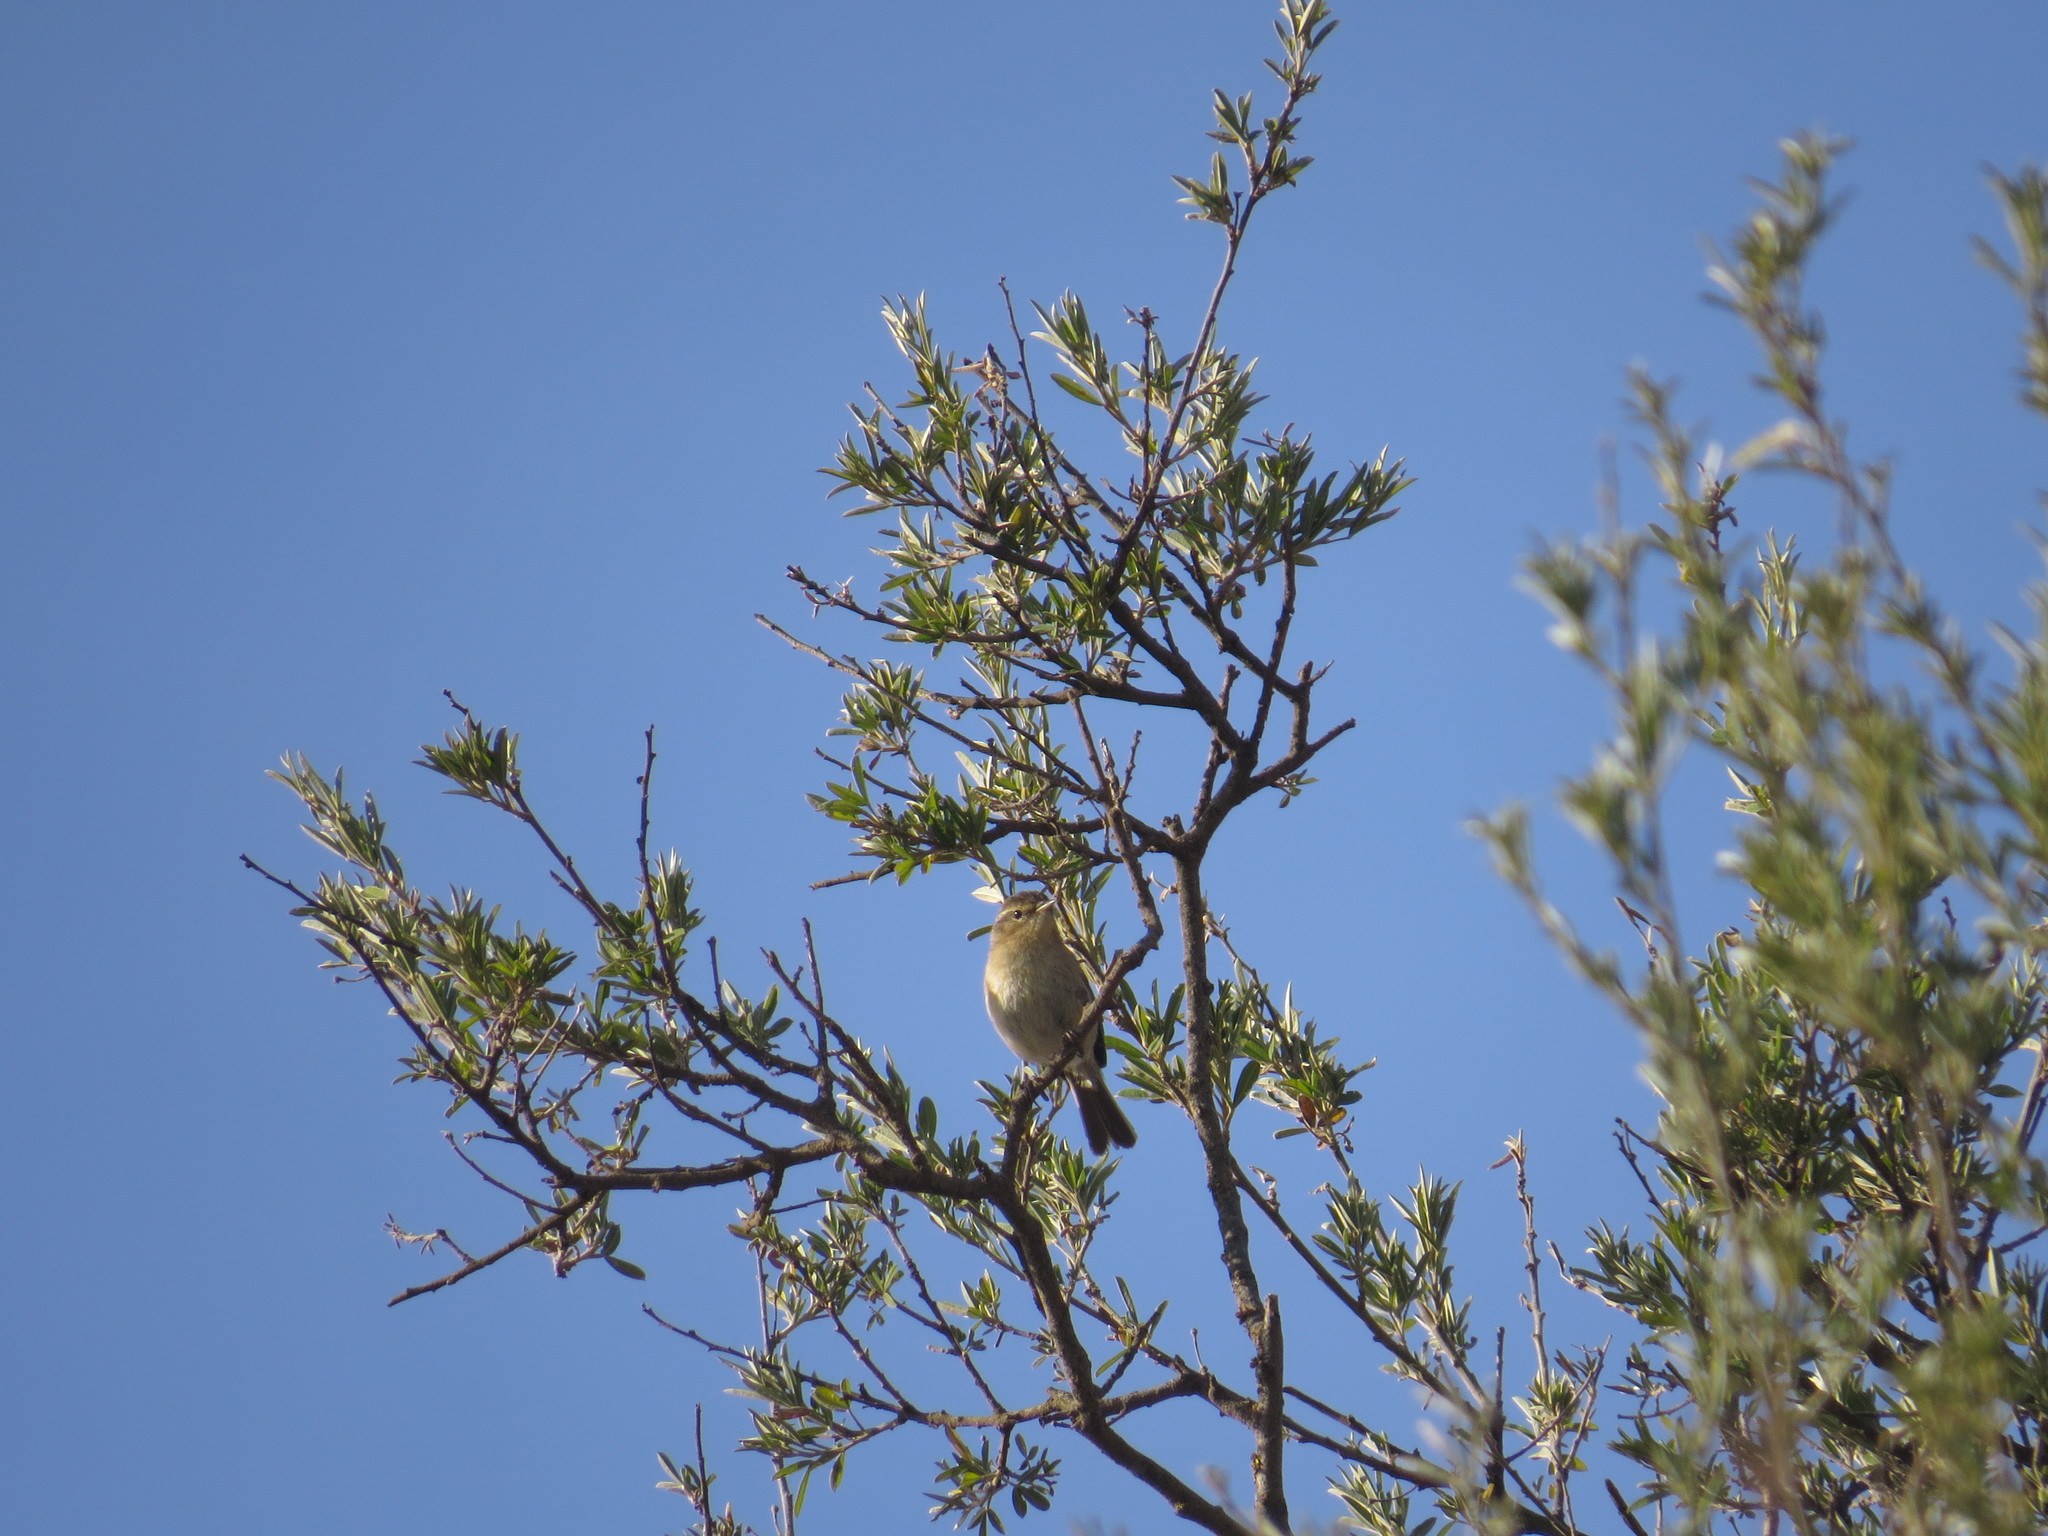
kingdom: Animalia
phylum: Chordata
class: Aves
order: Passeriformes
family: Phylloscopidae
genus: Phylloscopus
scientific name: Phylloscopus canariensis
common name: Canary islands chiffchaff
